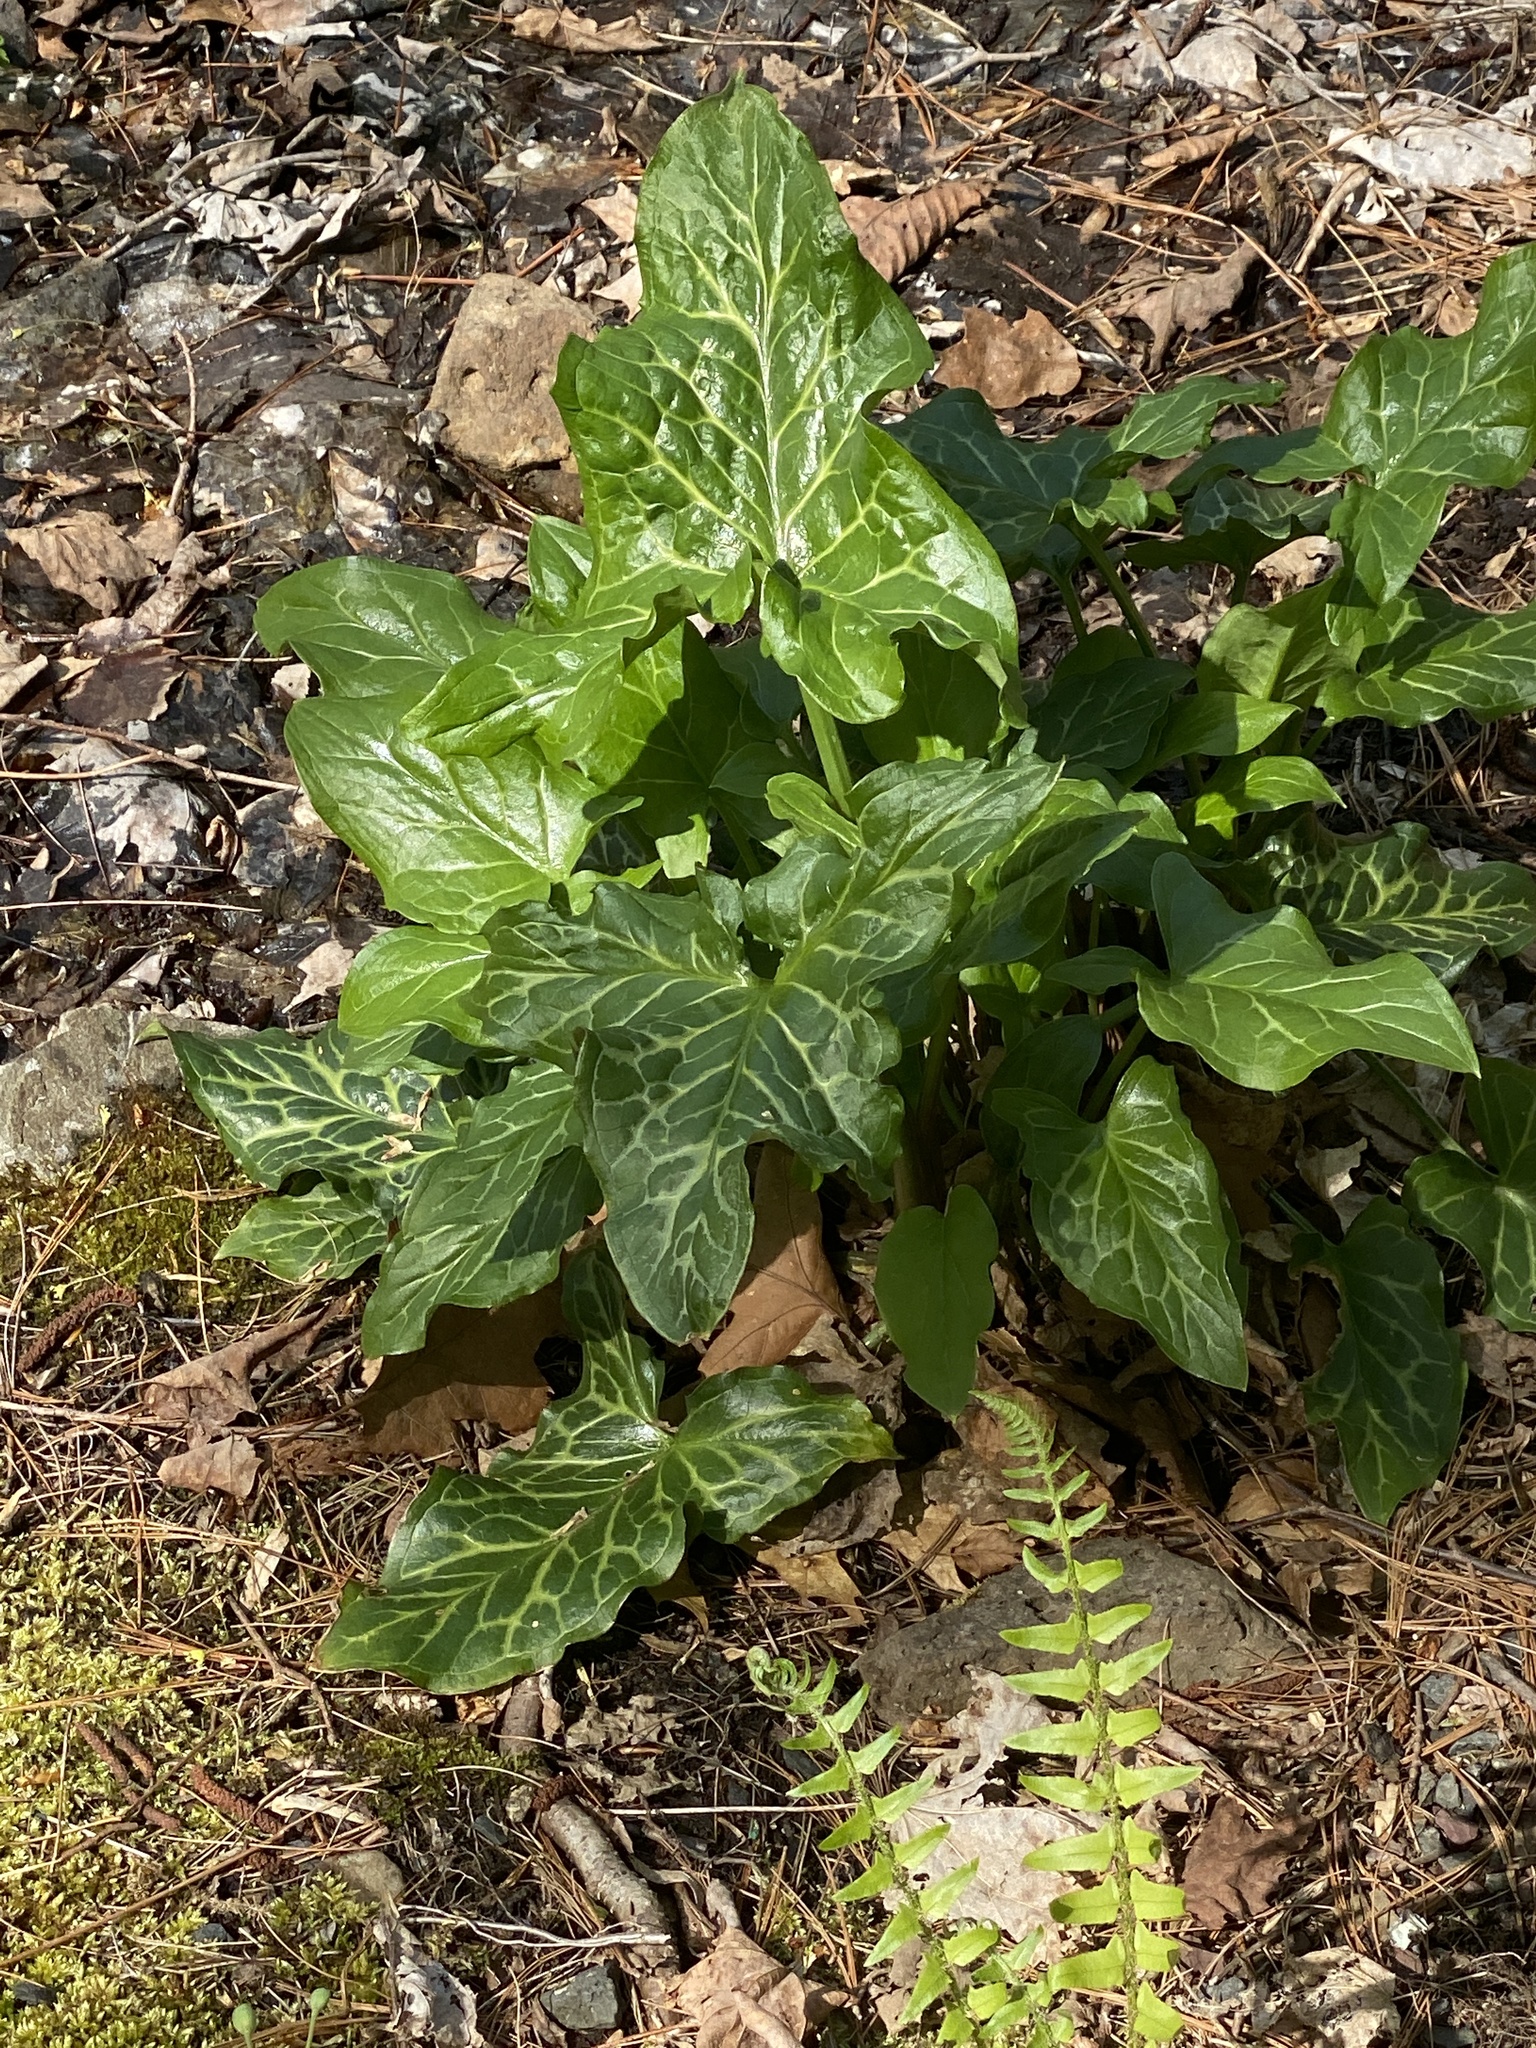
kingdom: Plantae
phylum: Tracheophyta
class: Liliopsida
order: Alismatales
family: Araceae
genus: Arum
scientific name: Arum italicum
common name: Italian lords-and-ladies
